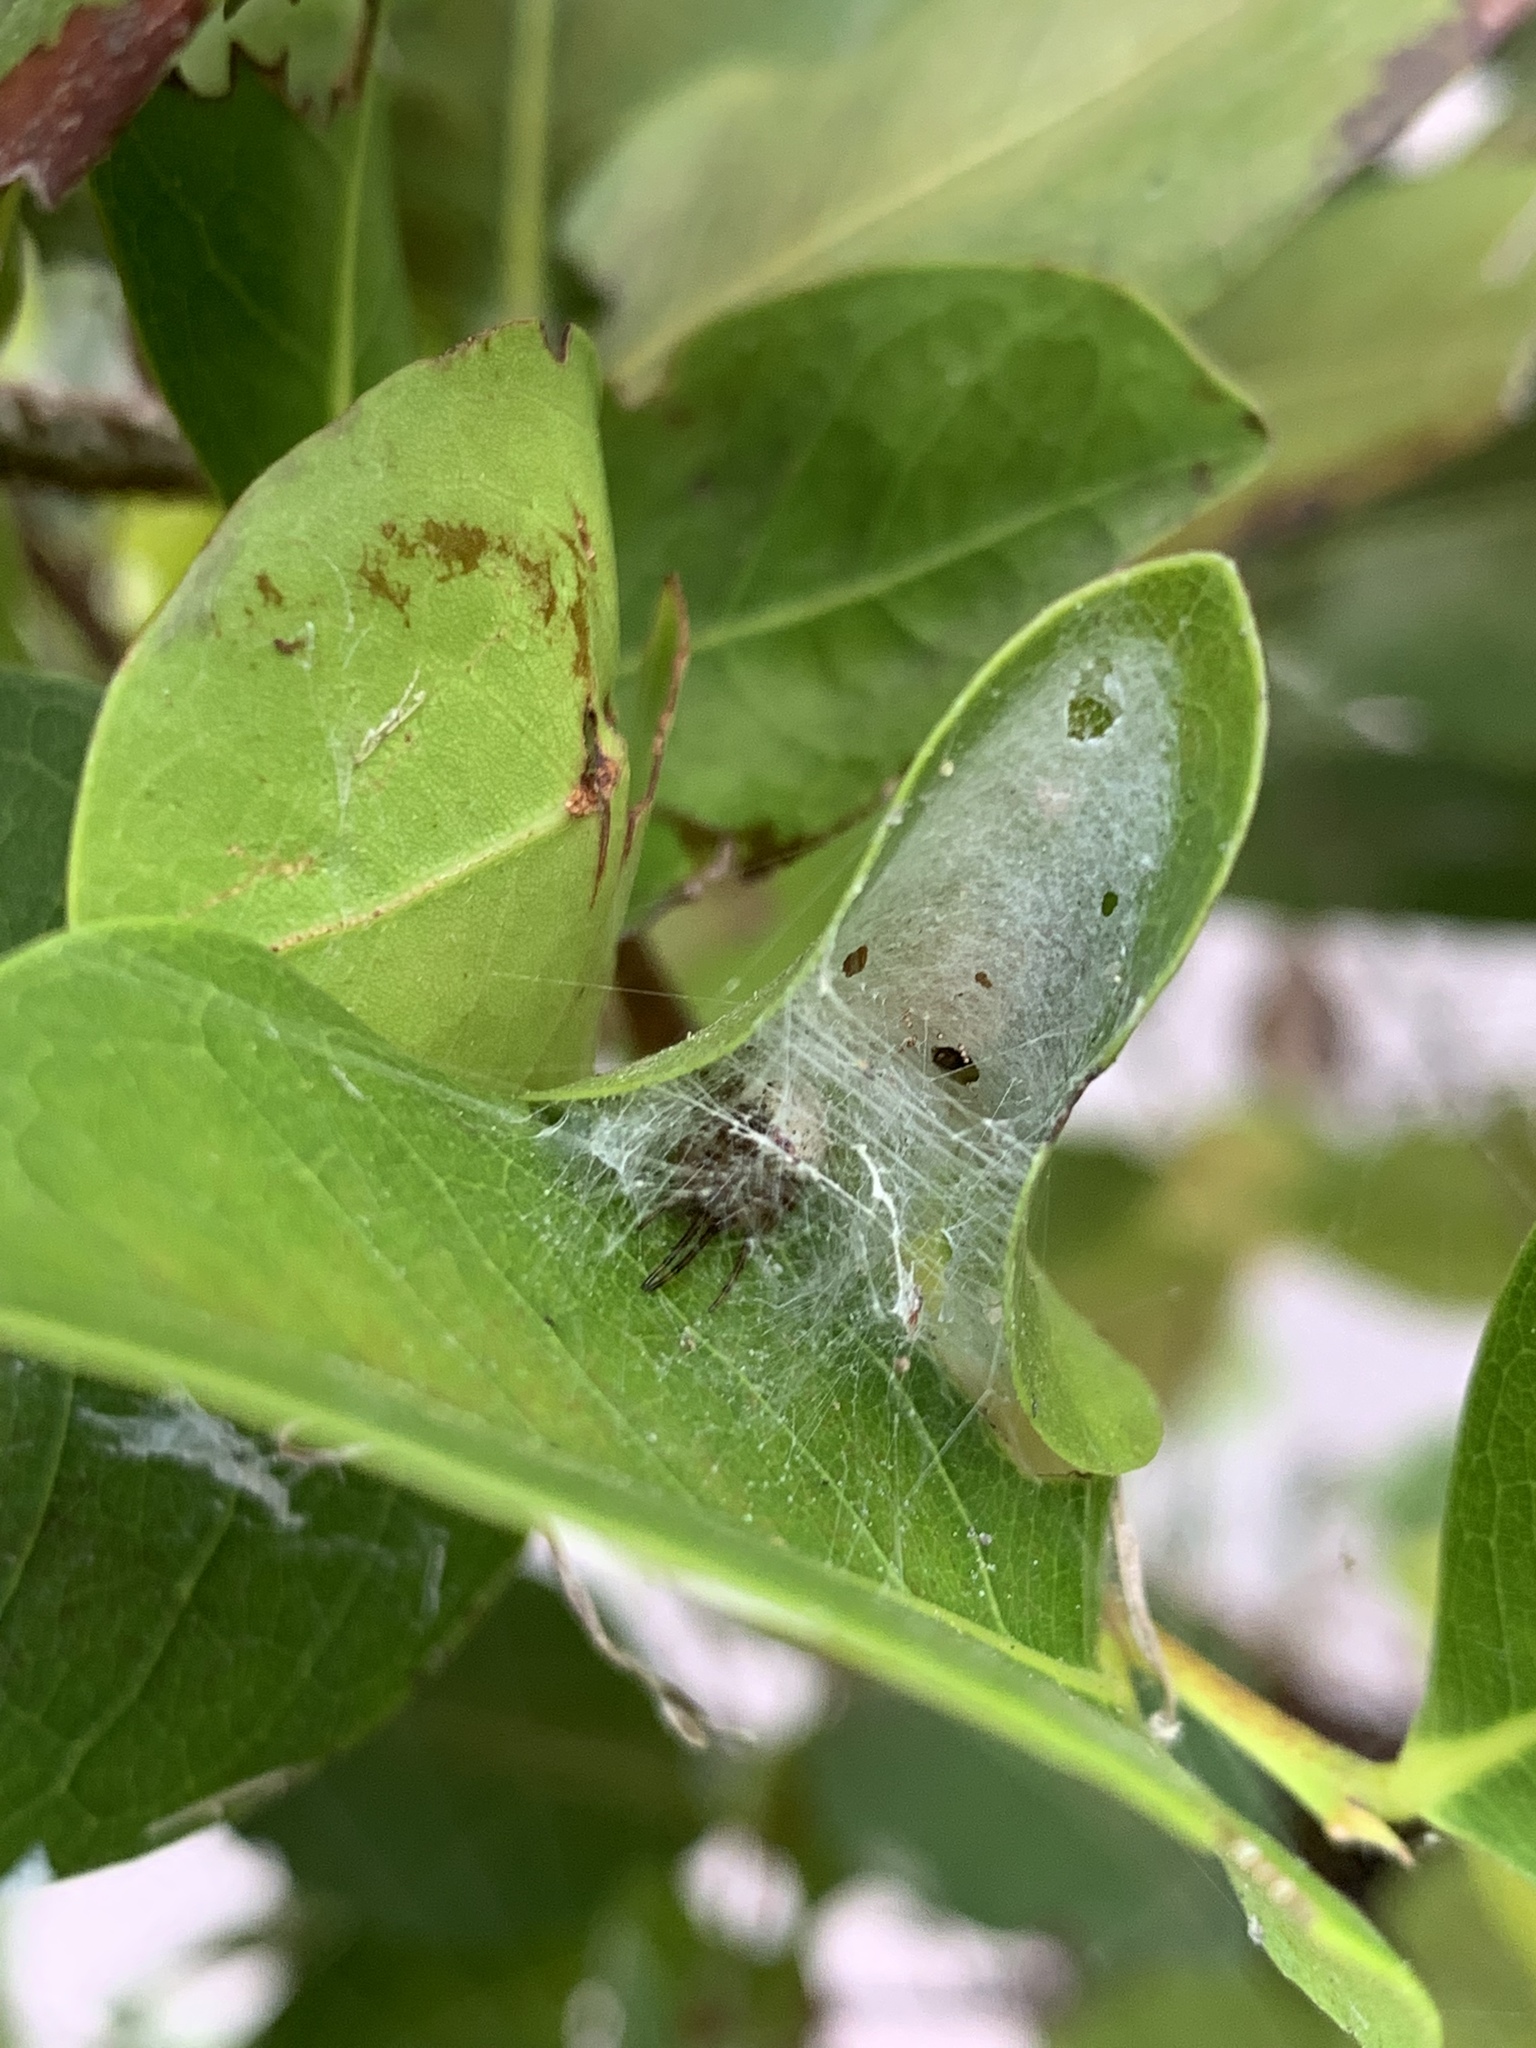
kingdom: Animalia
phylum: Arthropoda
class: Arachnida
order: Araneae
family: Araneidae
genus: Metazygia
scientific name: Metazygia zilloides
